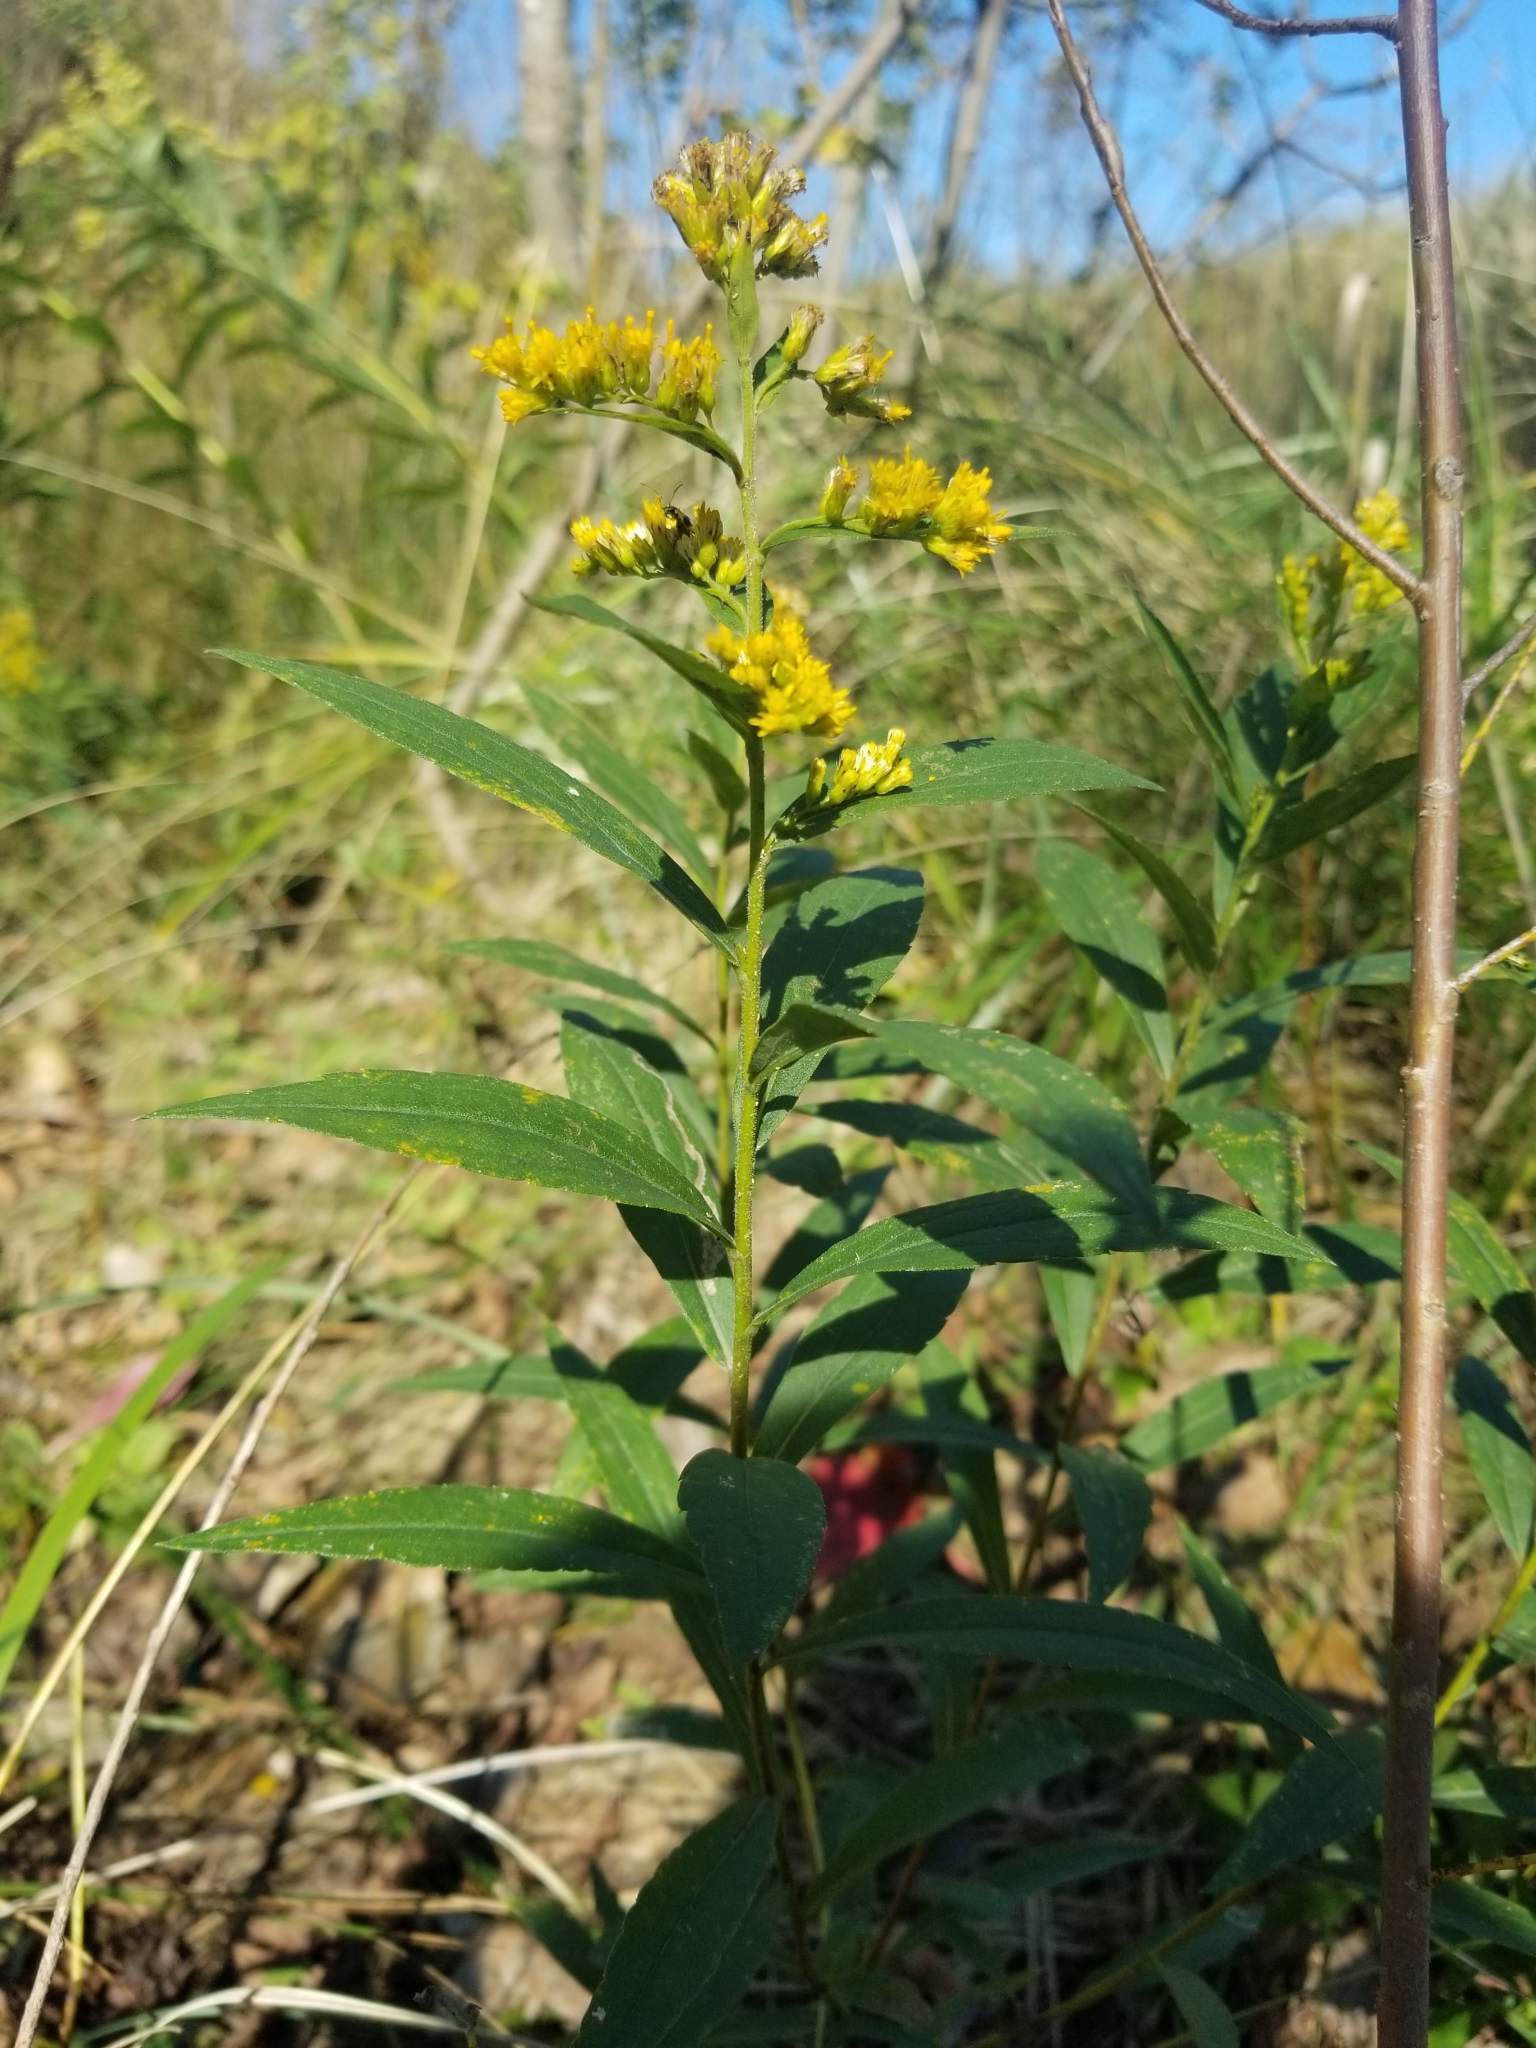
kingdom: Plantae
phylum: Tracheophyta
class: Magnoliopsida
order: Asterales
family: Asteraceae
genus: Solidago
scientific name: Solidago canadensis
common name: Canada goldenrod
